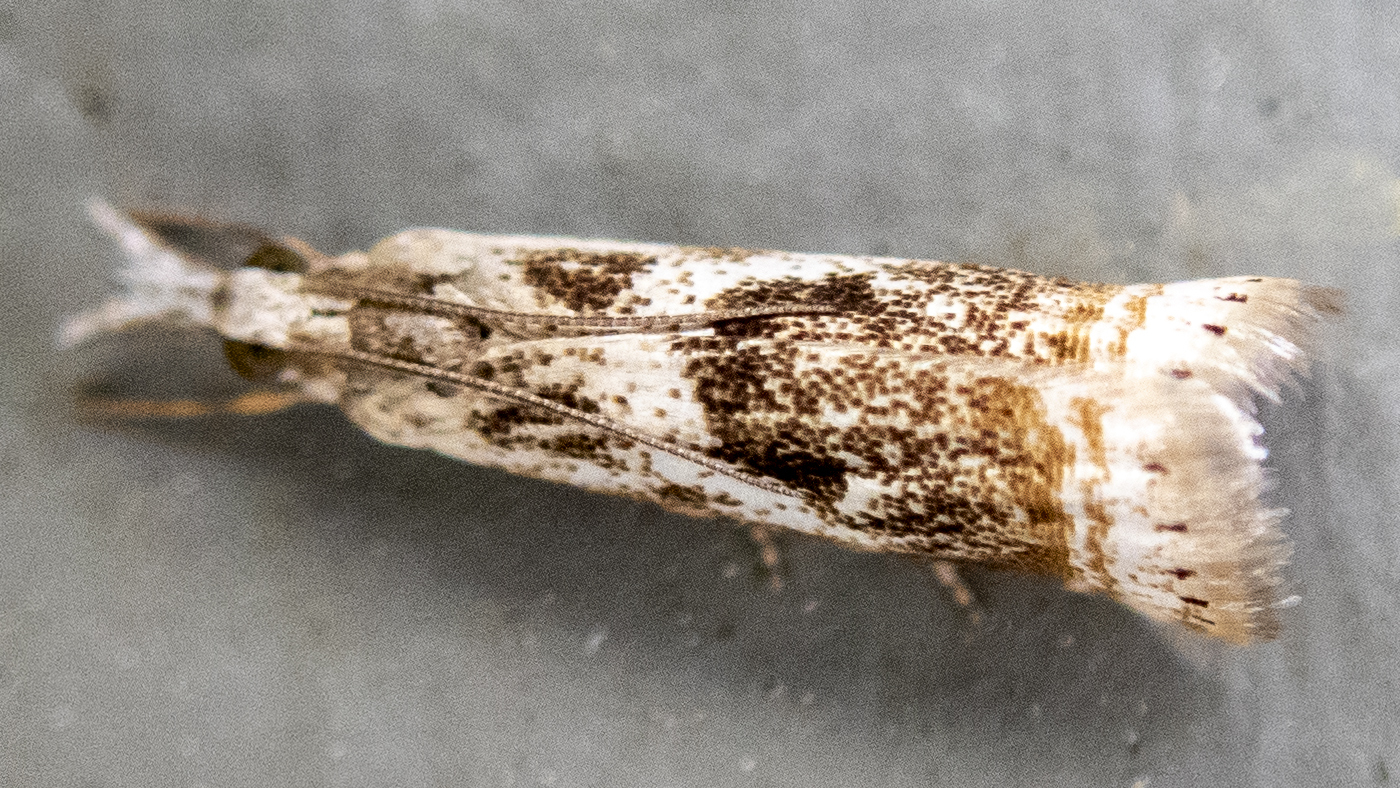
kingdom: Animalia
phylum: Arthropoda
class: Insecta
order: Lepidoptera
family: Crambidae
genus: Microcrambus
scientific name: Microcrambus elegans
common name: Elegant grass-veneer
